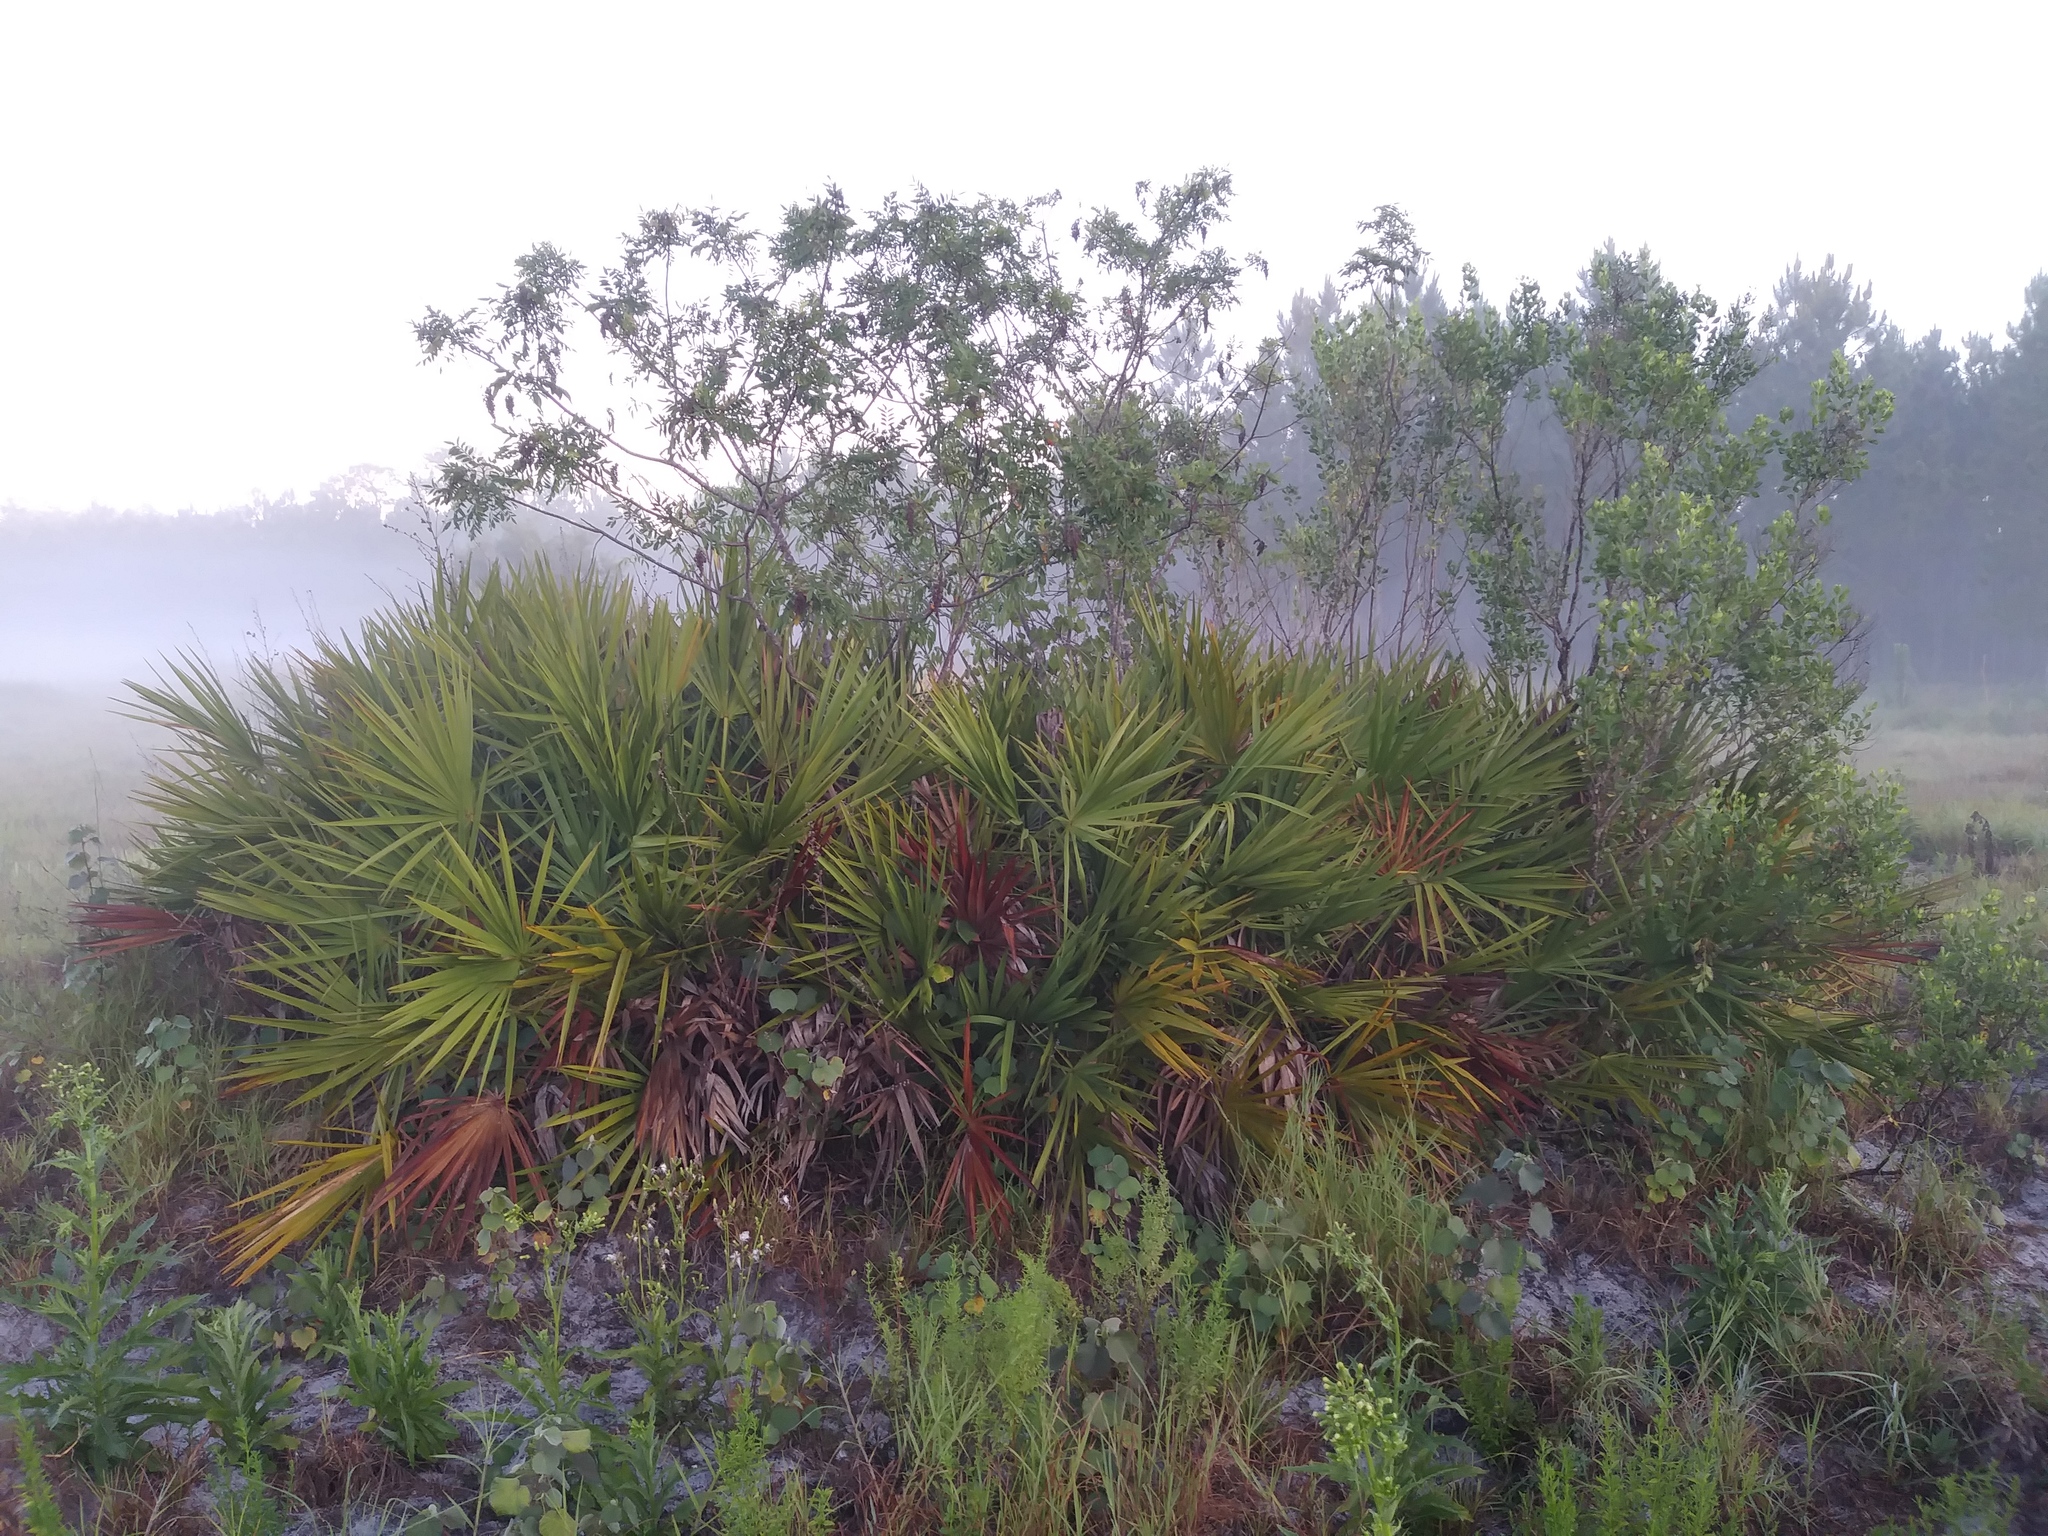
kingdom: Plantae
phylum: Tracheophyta
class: Magnoliopsida
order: Sapindales
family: Anacardiaceae
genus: Rhus
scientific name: Rhus copallina
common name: Shining sumac
